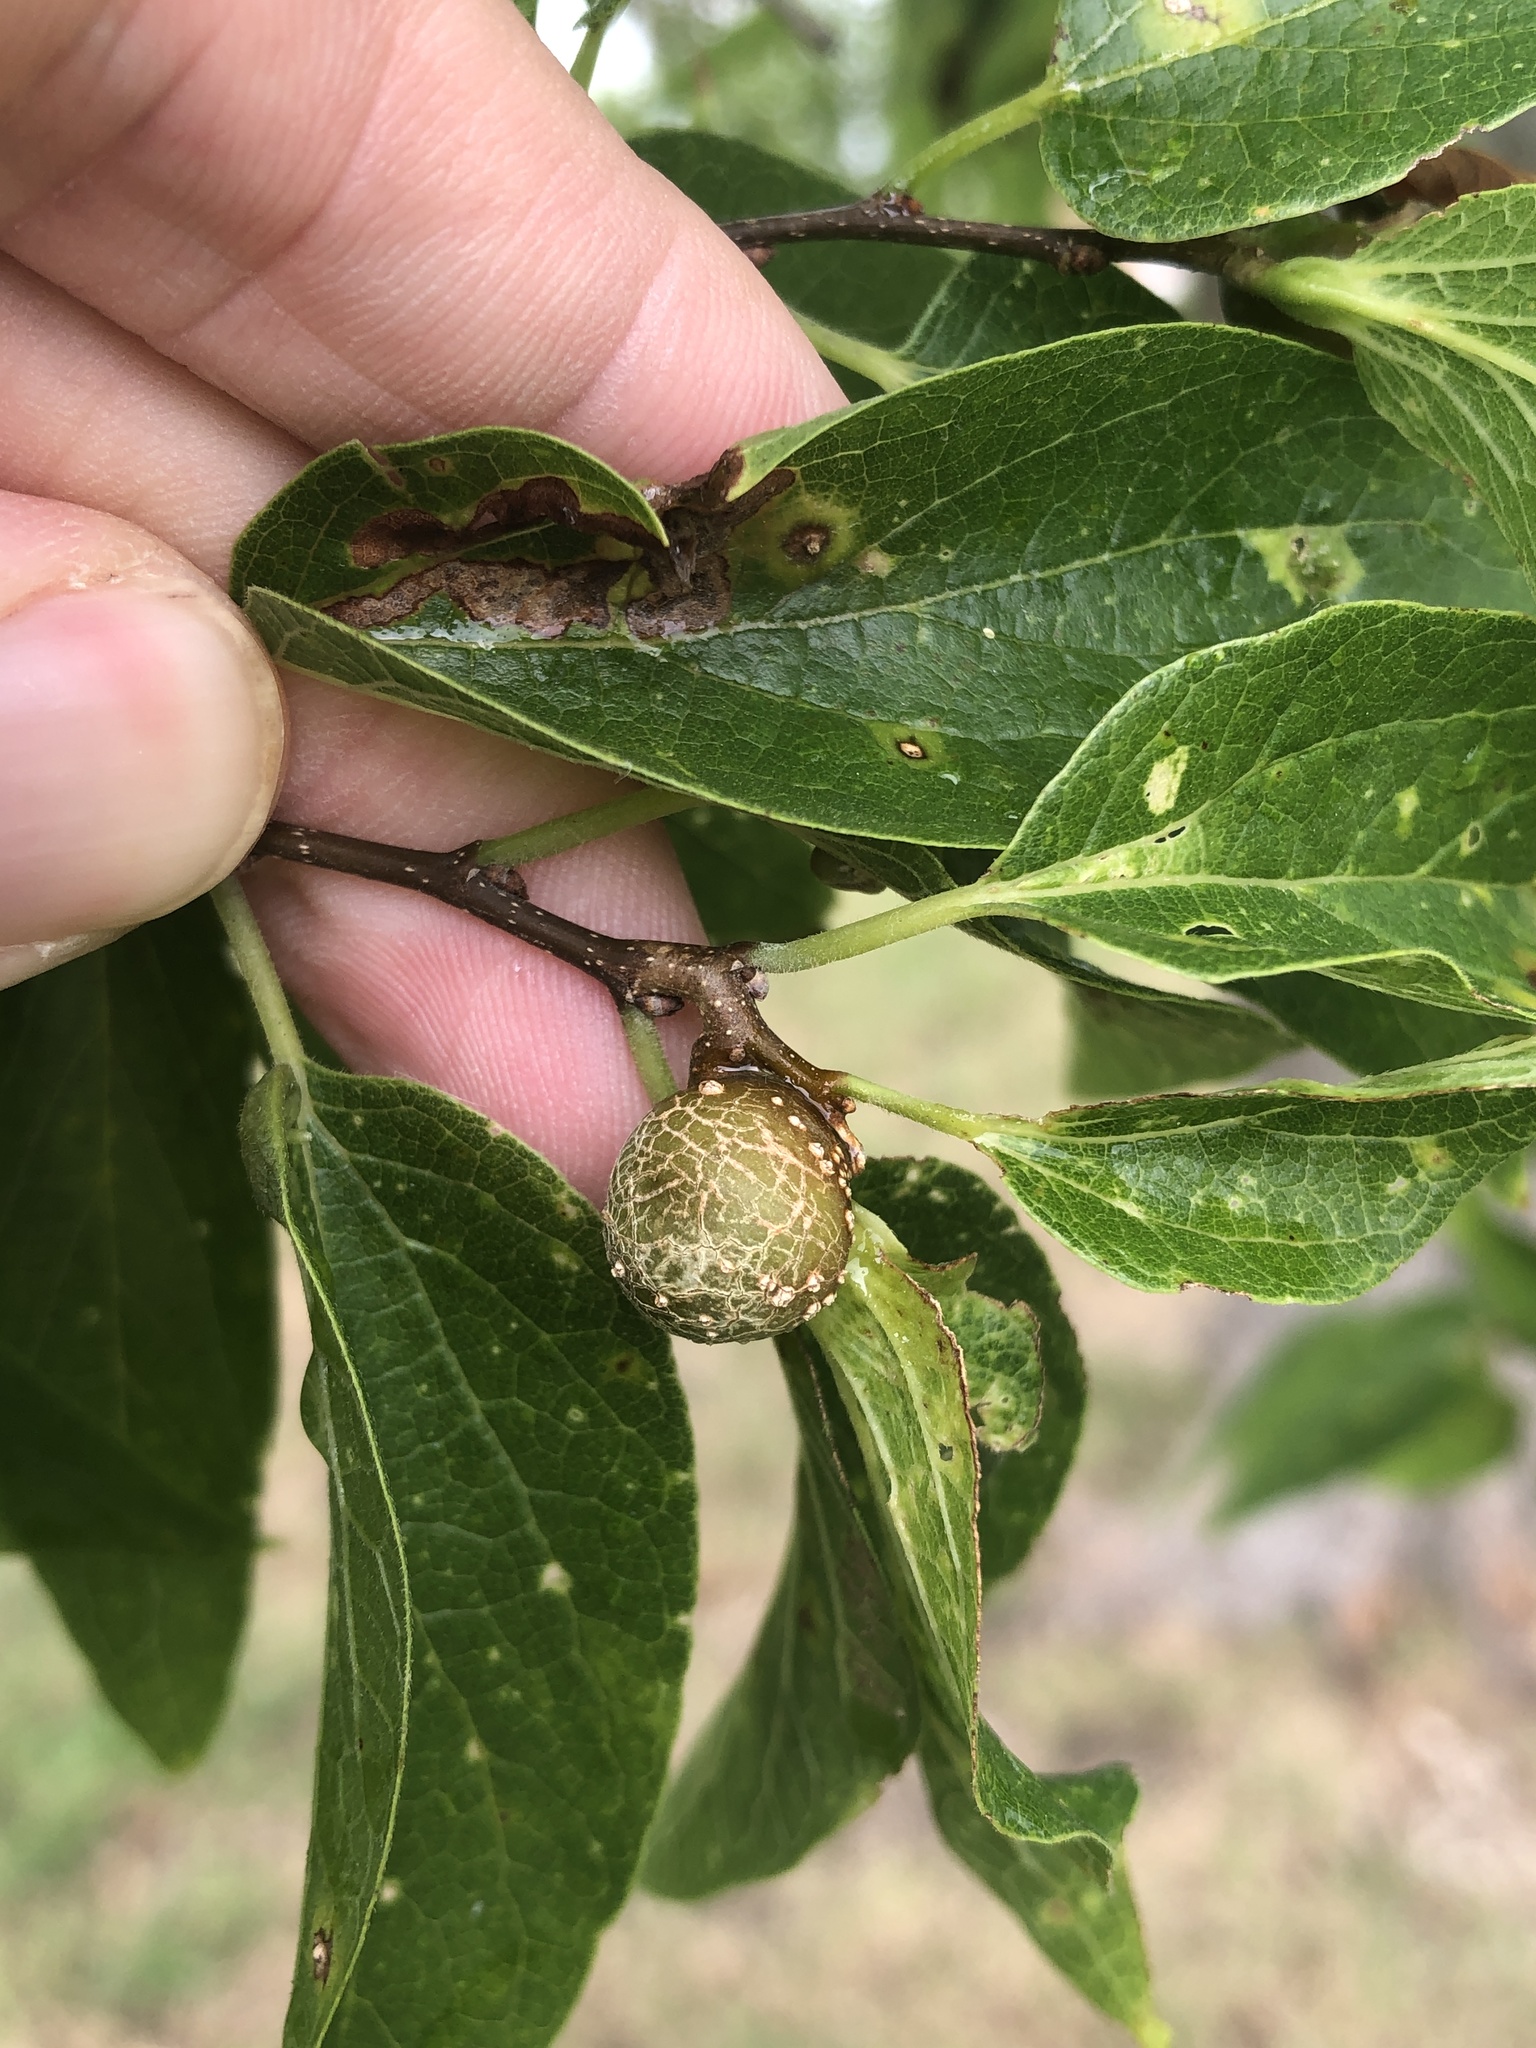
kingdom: Animalia
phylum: Arthropoda
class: Insecta
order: Hemiptera
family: Aphalaridae
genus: Pachypsylla
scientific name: Pachypsylla venusta
